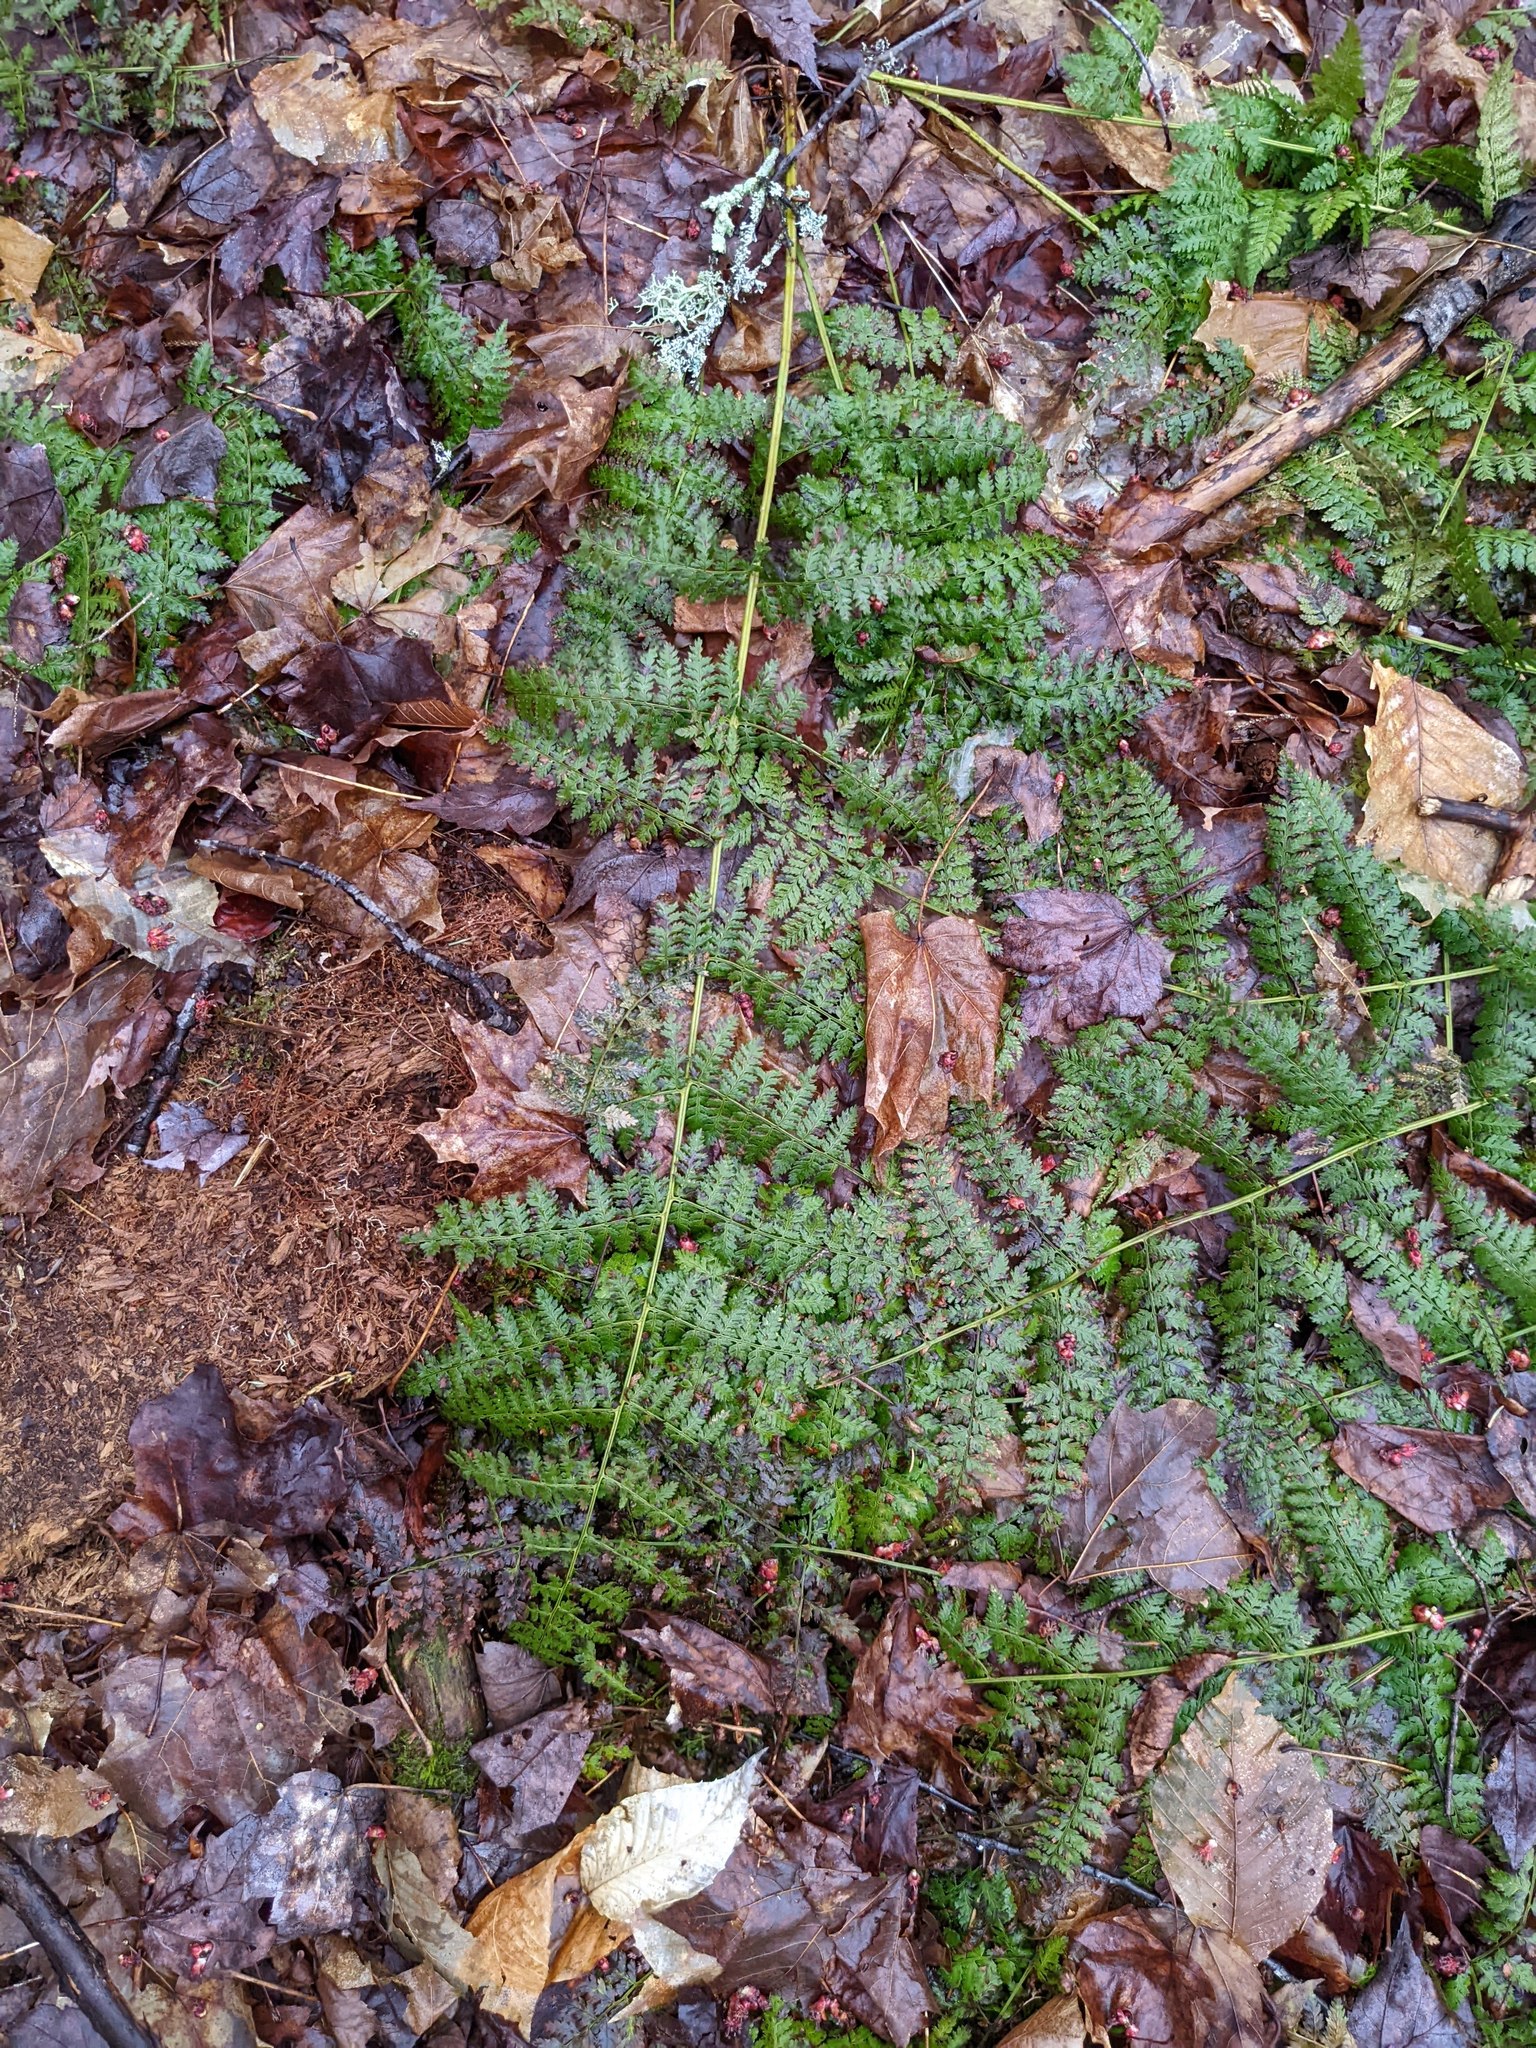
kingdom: Plantae
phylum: Tracheophyta
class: Polypodiopsida
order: Polypodiales
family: Dryopteridaceae
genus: Dryopteris
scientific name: Dryopteris intermedia
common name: Evergreen wood fern
